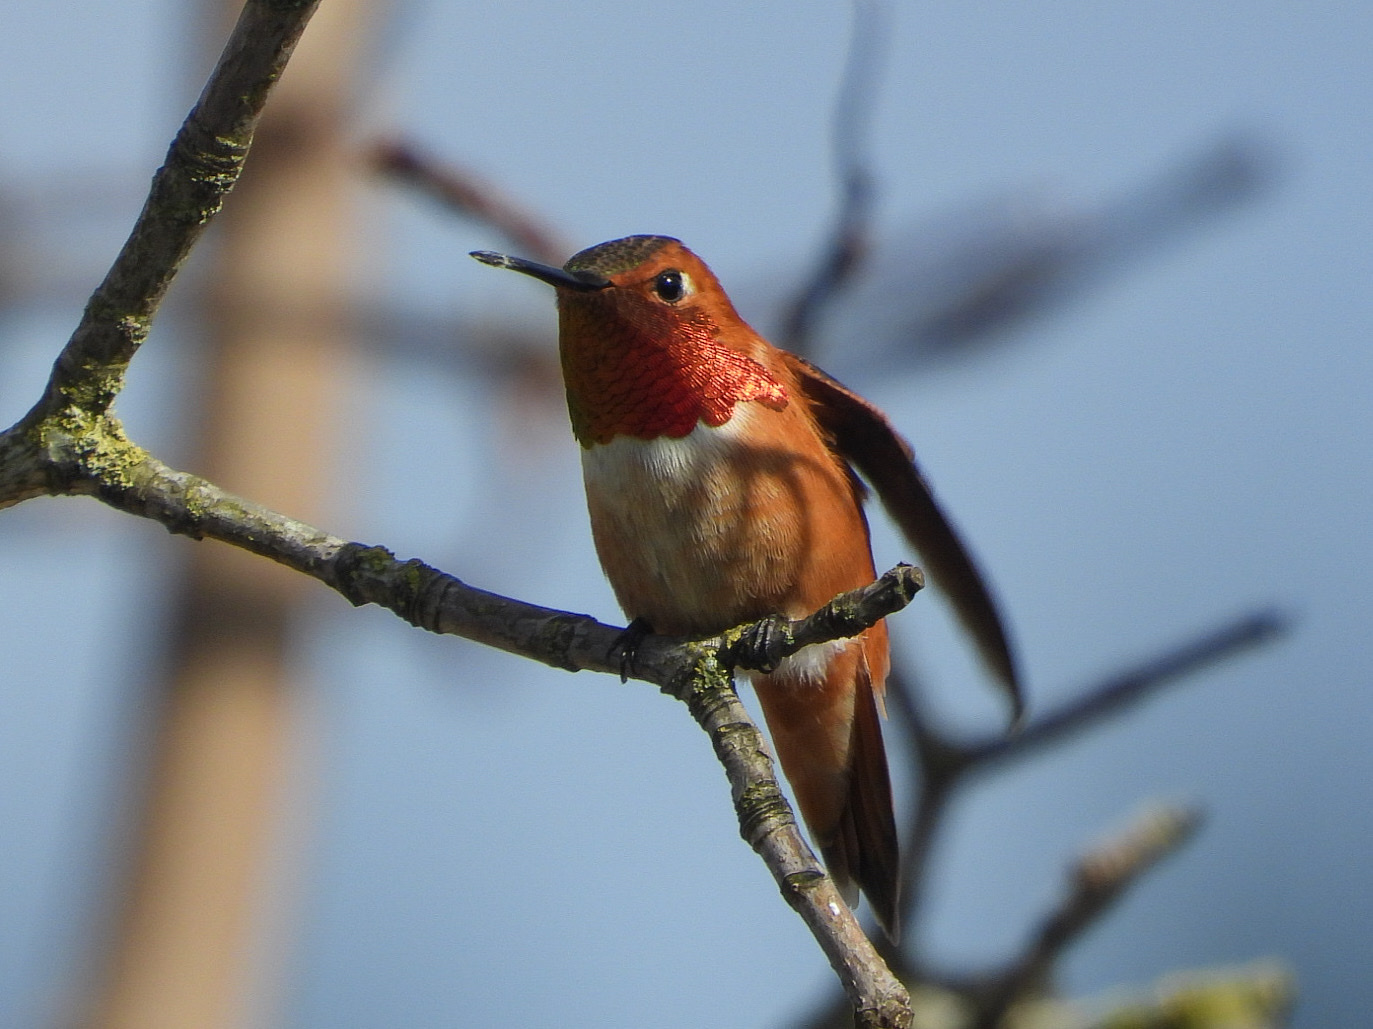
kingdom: Animalia
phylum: Chordata
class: Aves
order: Apodiformes
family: Trochilidae
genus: Selasphorus
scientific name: Selasphorus rufus
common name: Rufous hummingbird
